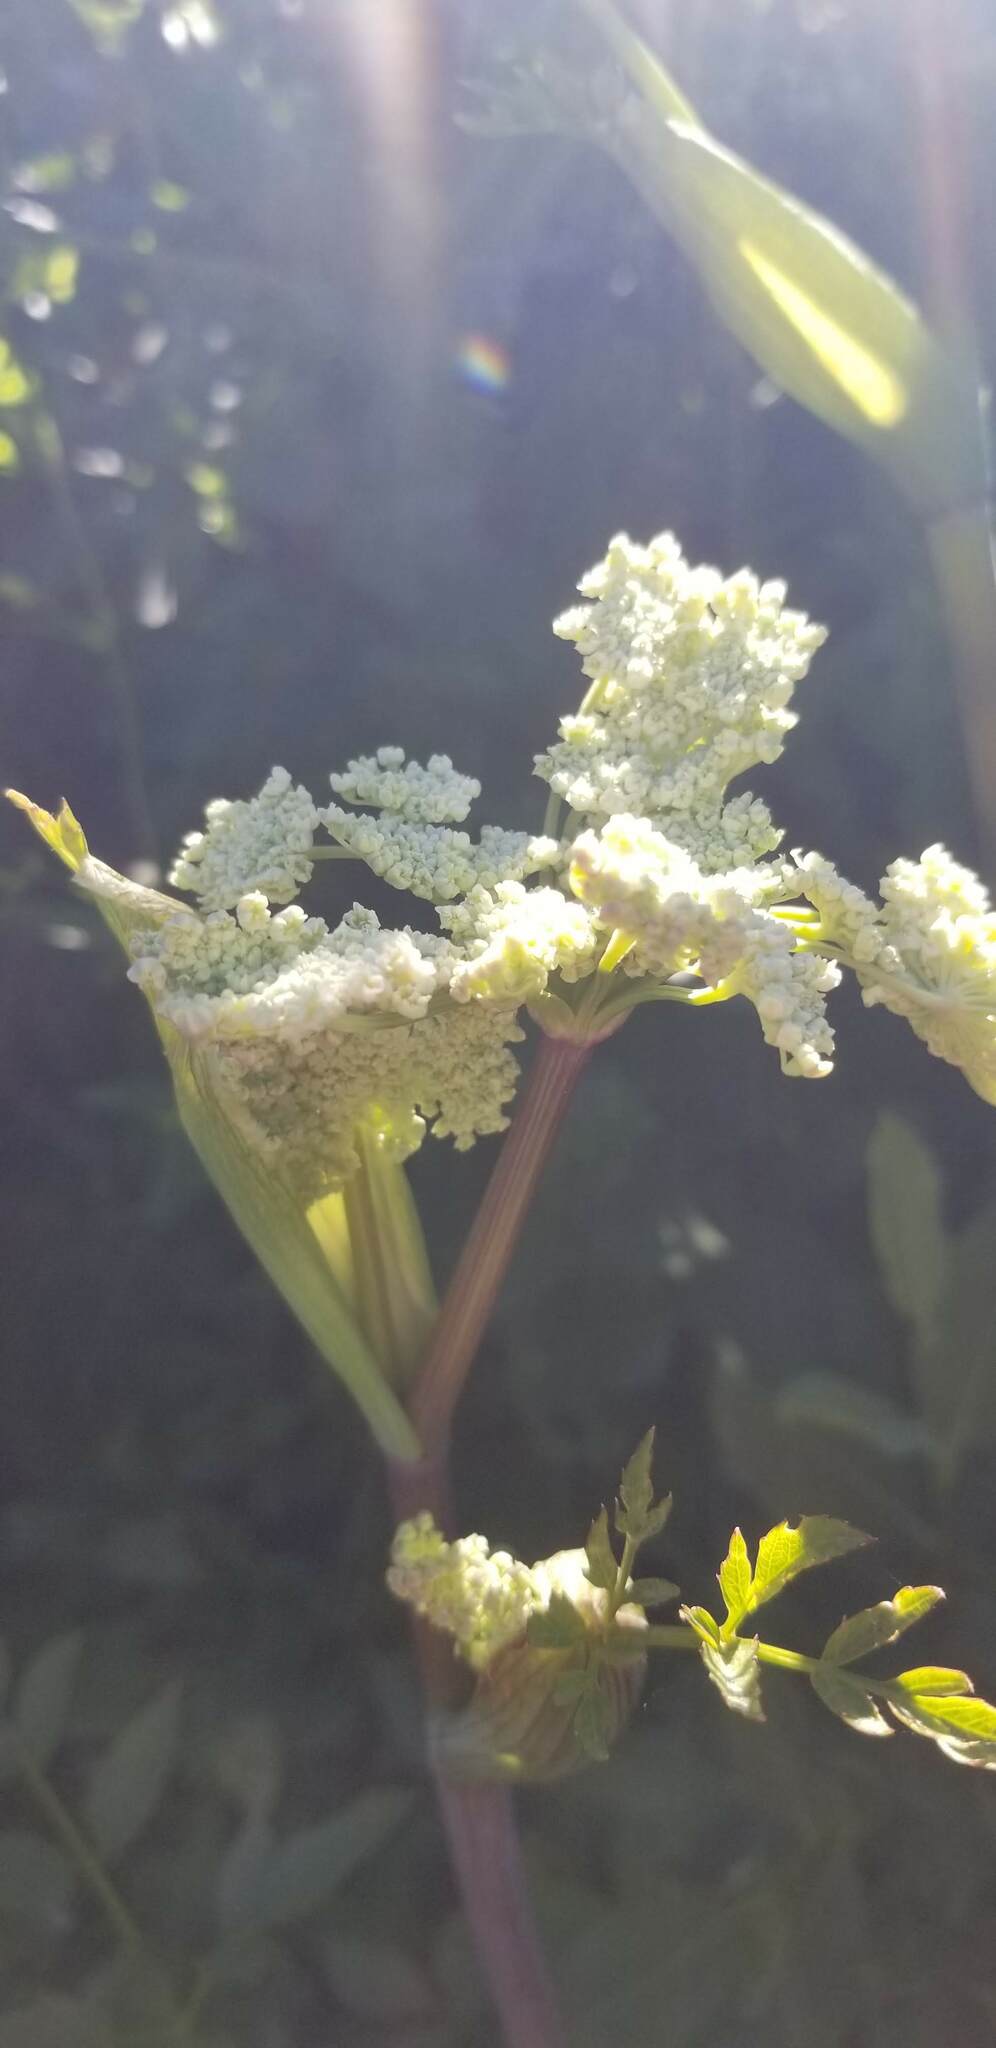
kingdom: Plantae
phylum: Tracheophyta
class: Magnoliopsida
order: Apiales
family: Apiaceae
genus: Angelica
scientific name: Angelica arguta
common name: Lyall's angelica
